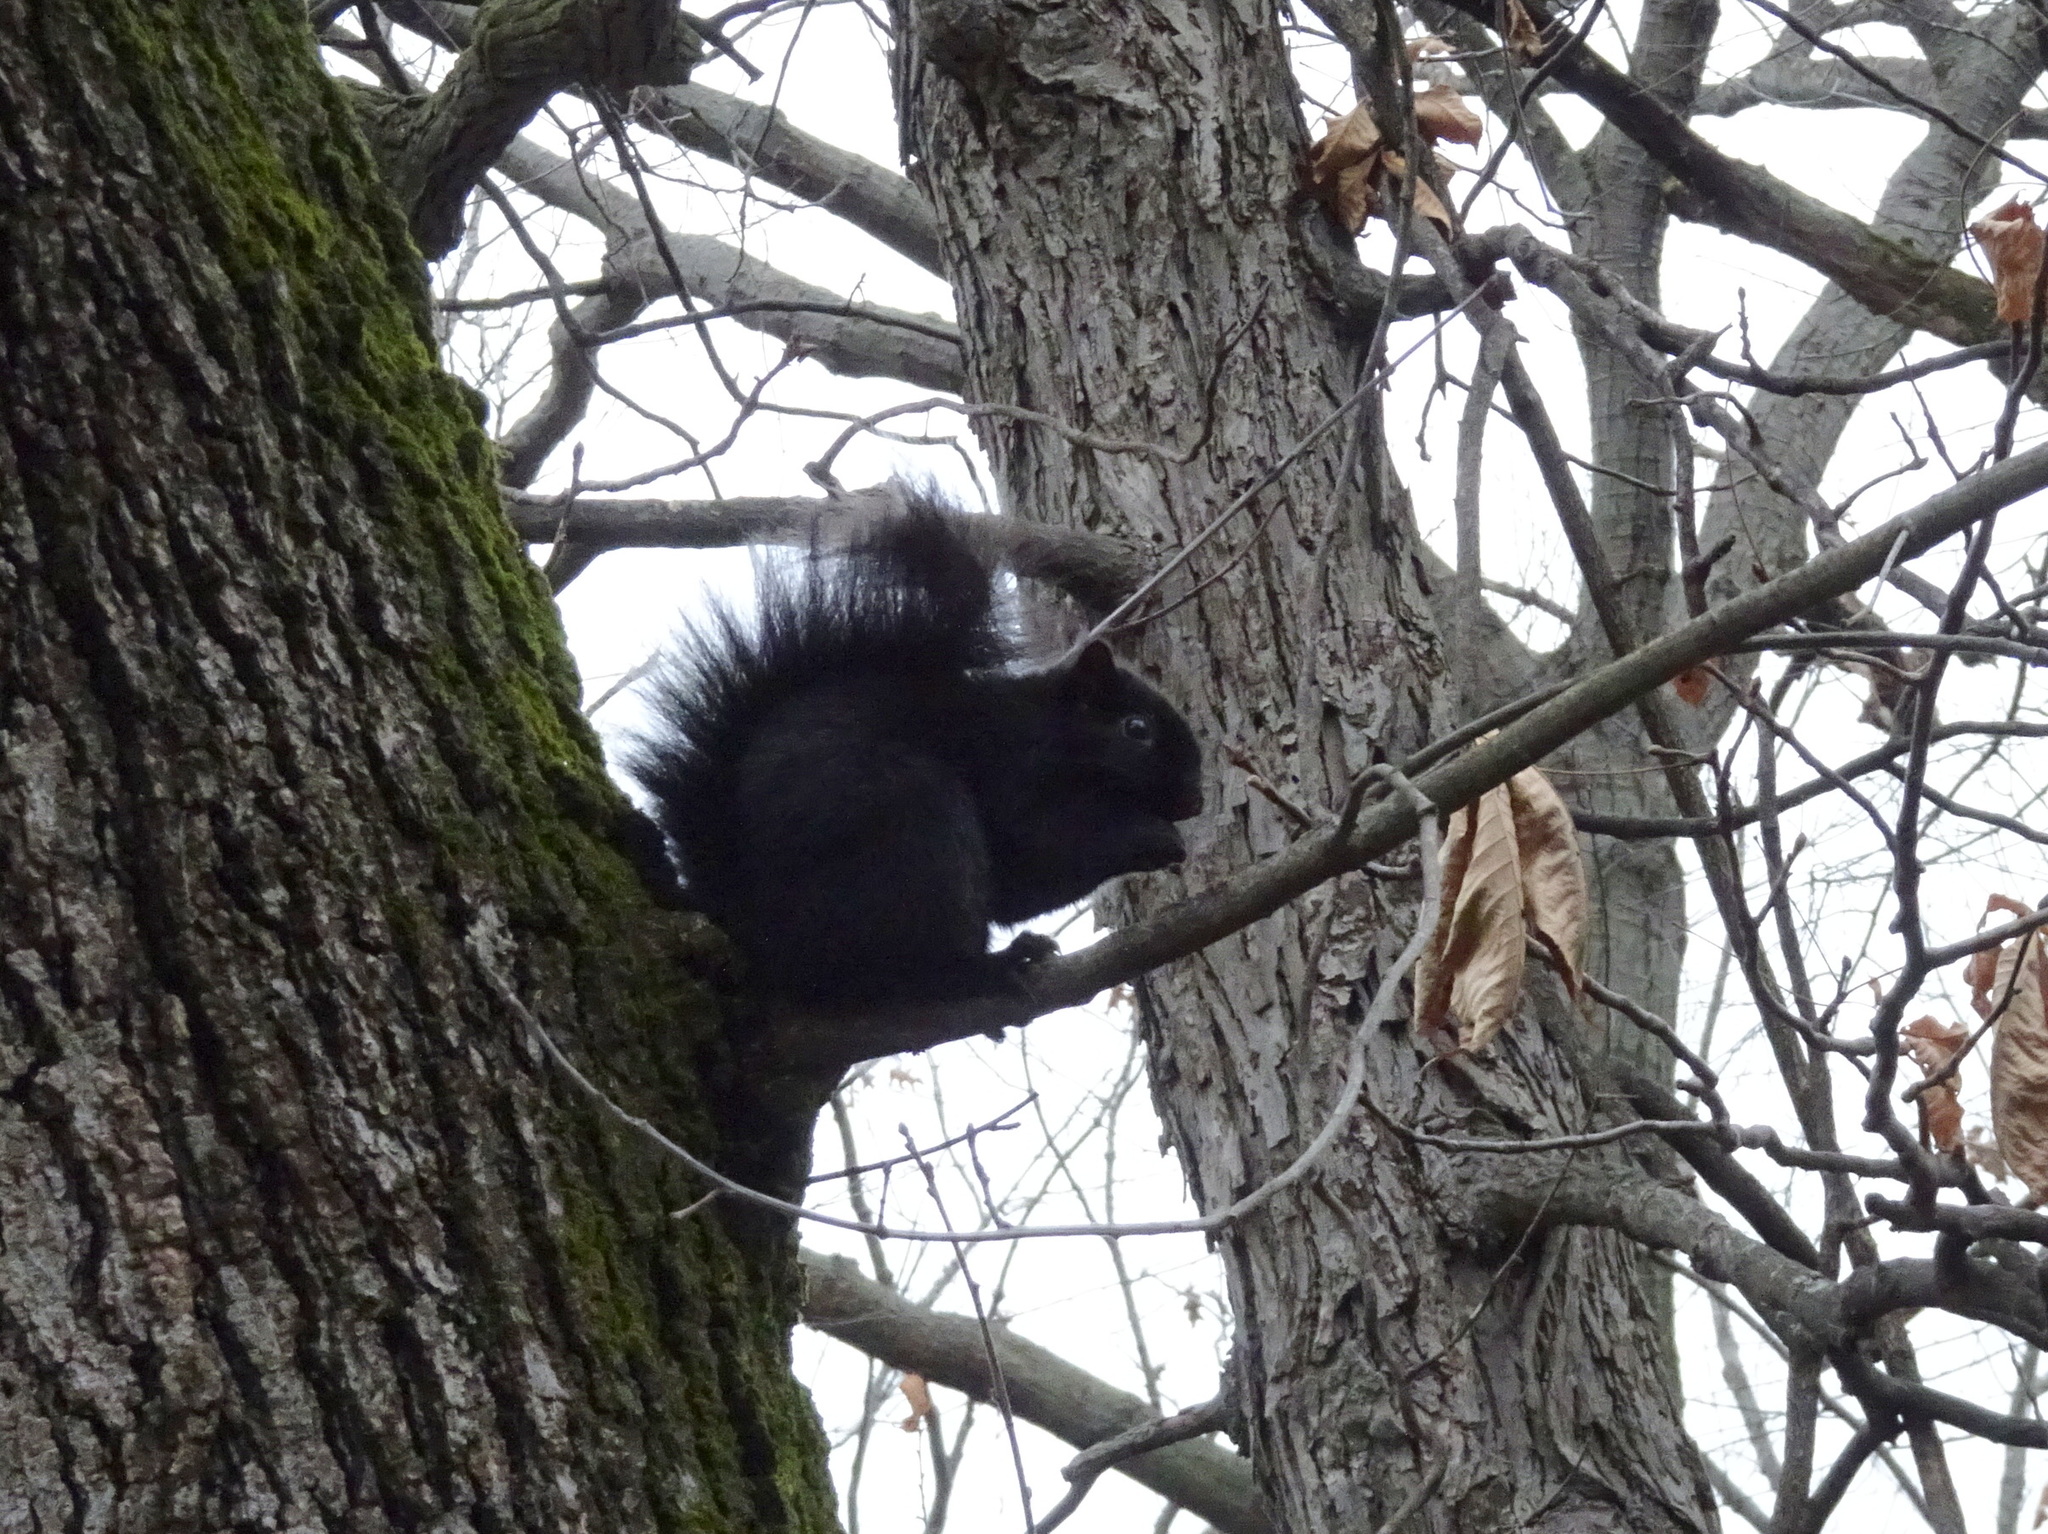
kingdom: Animalia
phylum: Chordata
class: Mammalia
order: Rodentia
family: Sciuridae
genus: Sciurus
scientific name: Sciurus carolinensis
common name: Eastern gray squirrel
